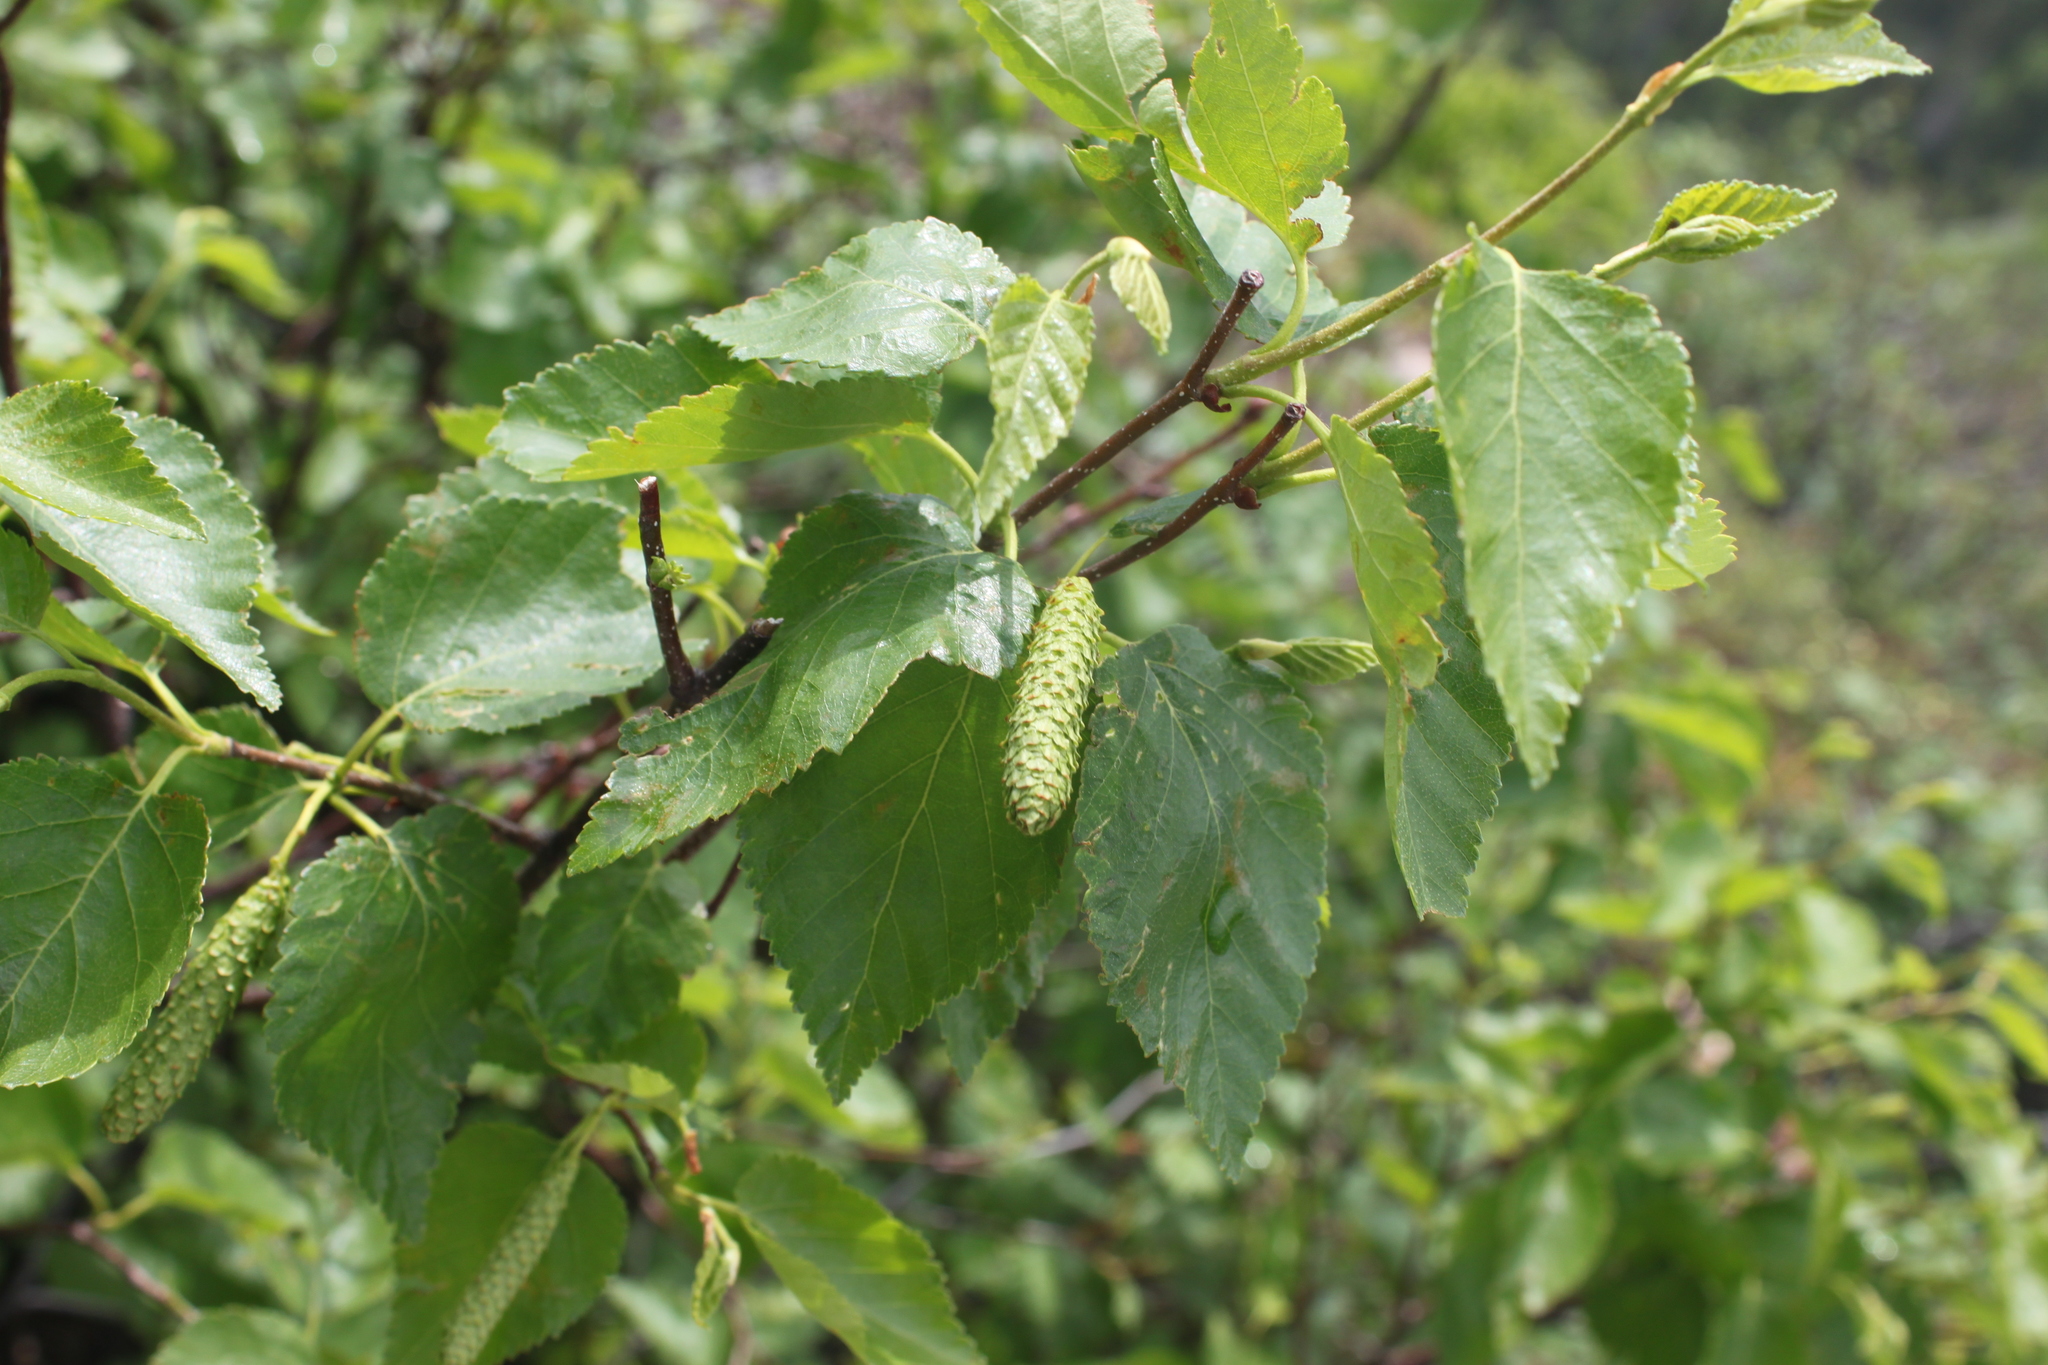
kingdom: Plantae
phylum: Tracheophyta
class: Magnoliopsida
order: Fagales
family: Betulaceae
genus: Betula
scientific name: Betula papyrifera
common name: Paper birch
